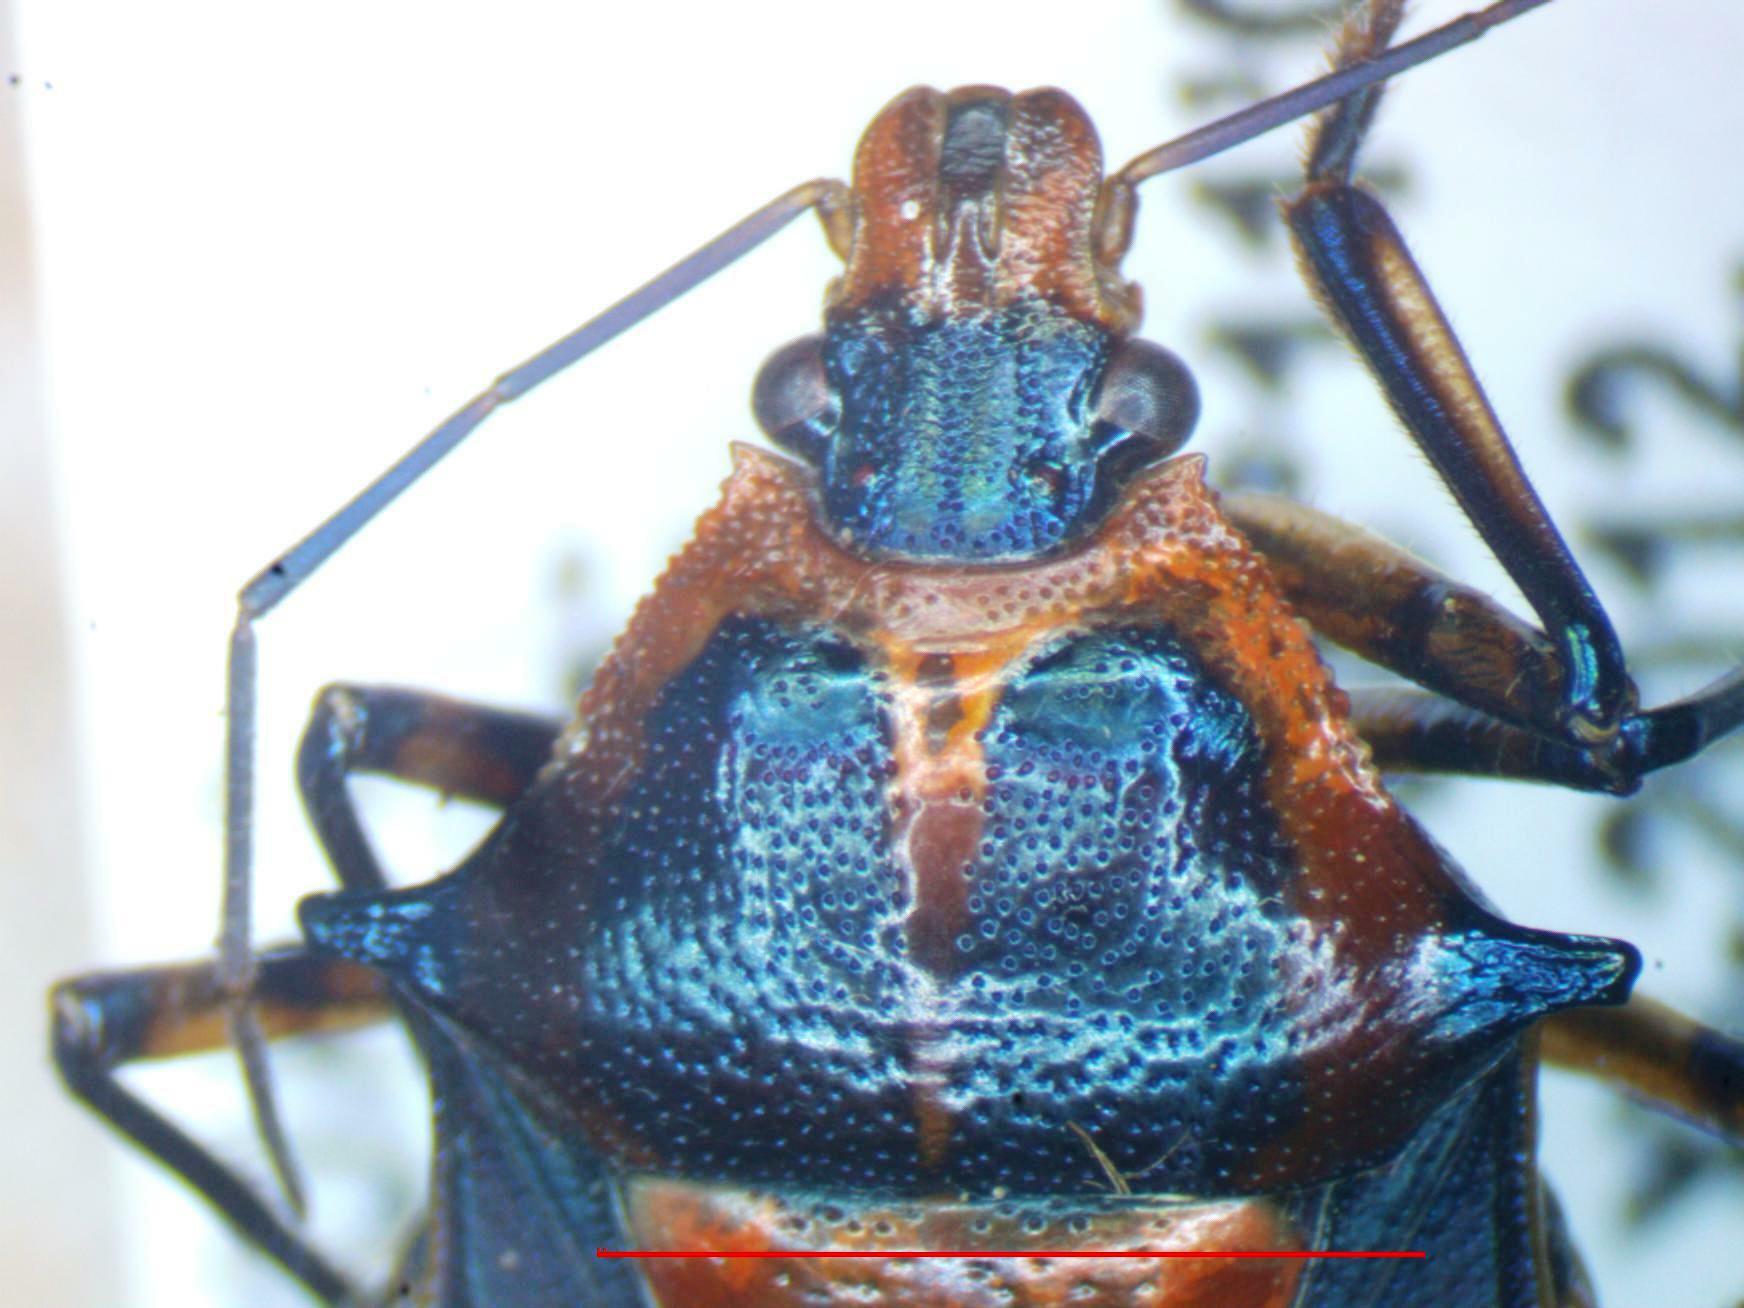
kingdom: Animalia
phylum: Arthropoda
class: Insecta
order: Hemiptera
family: Pentatomidae
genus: Euthyrhynchus
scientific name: Euthyrhynchus floridanus
